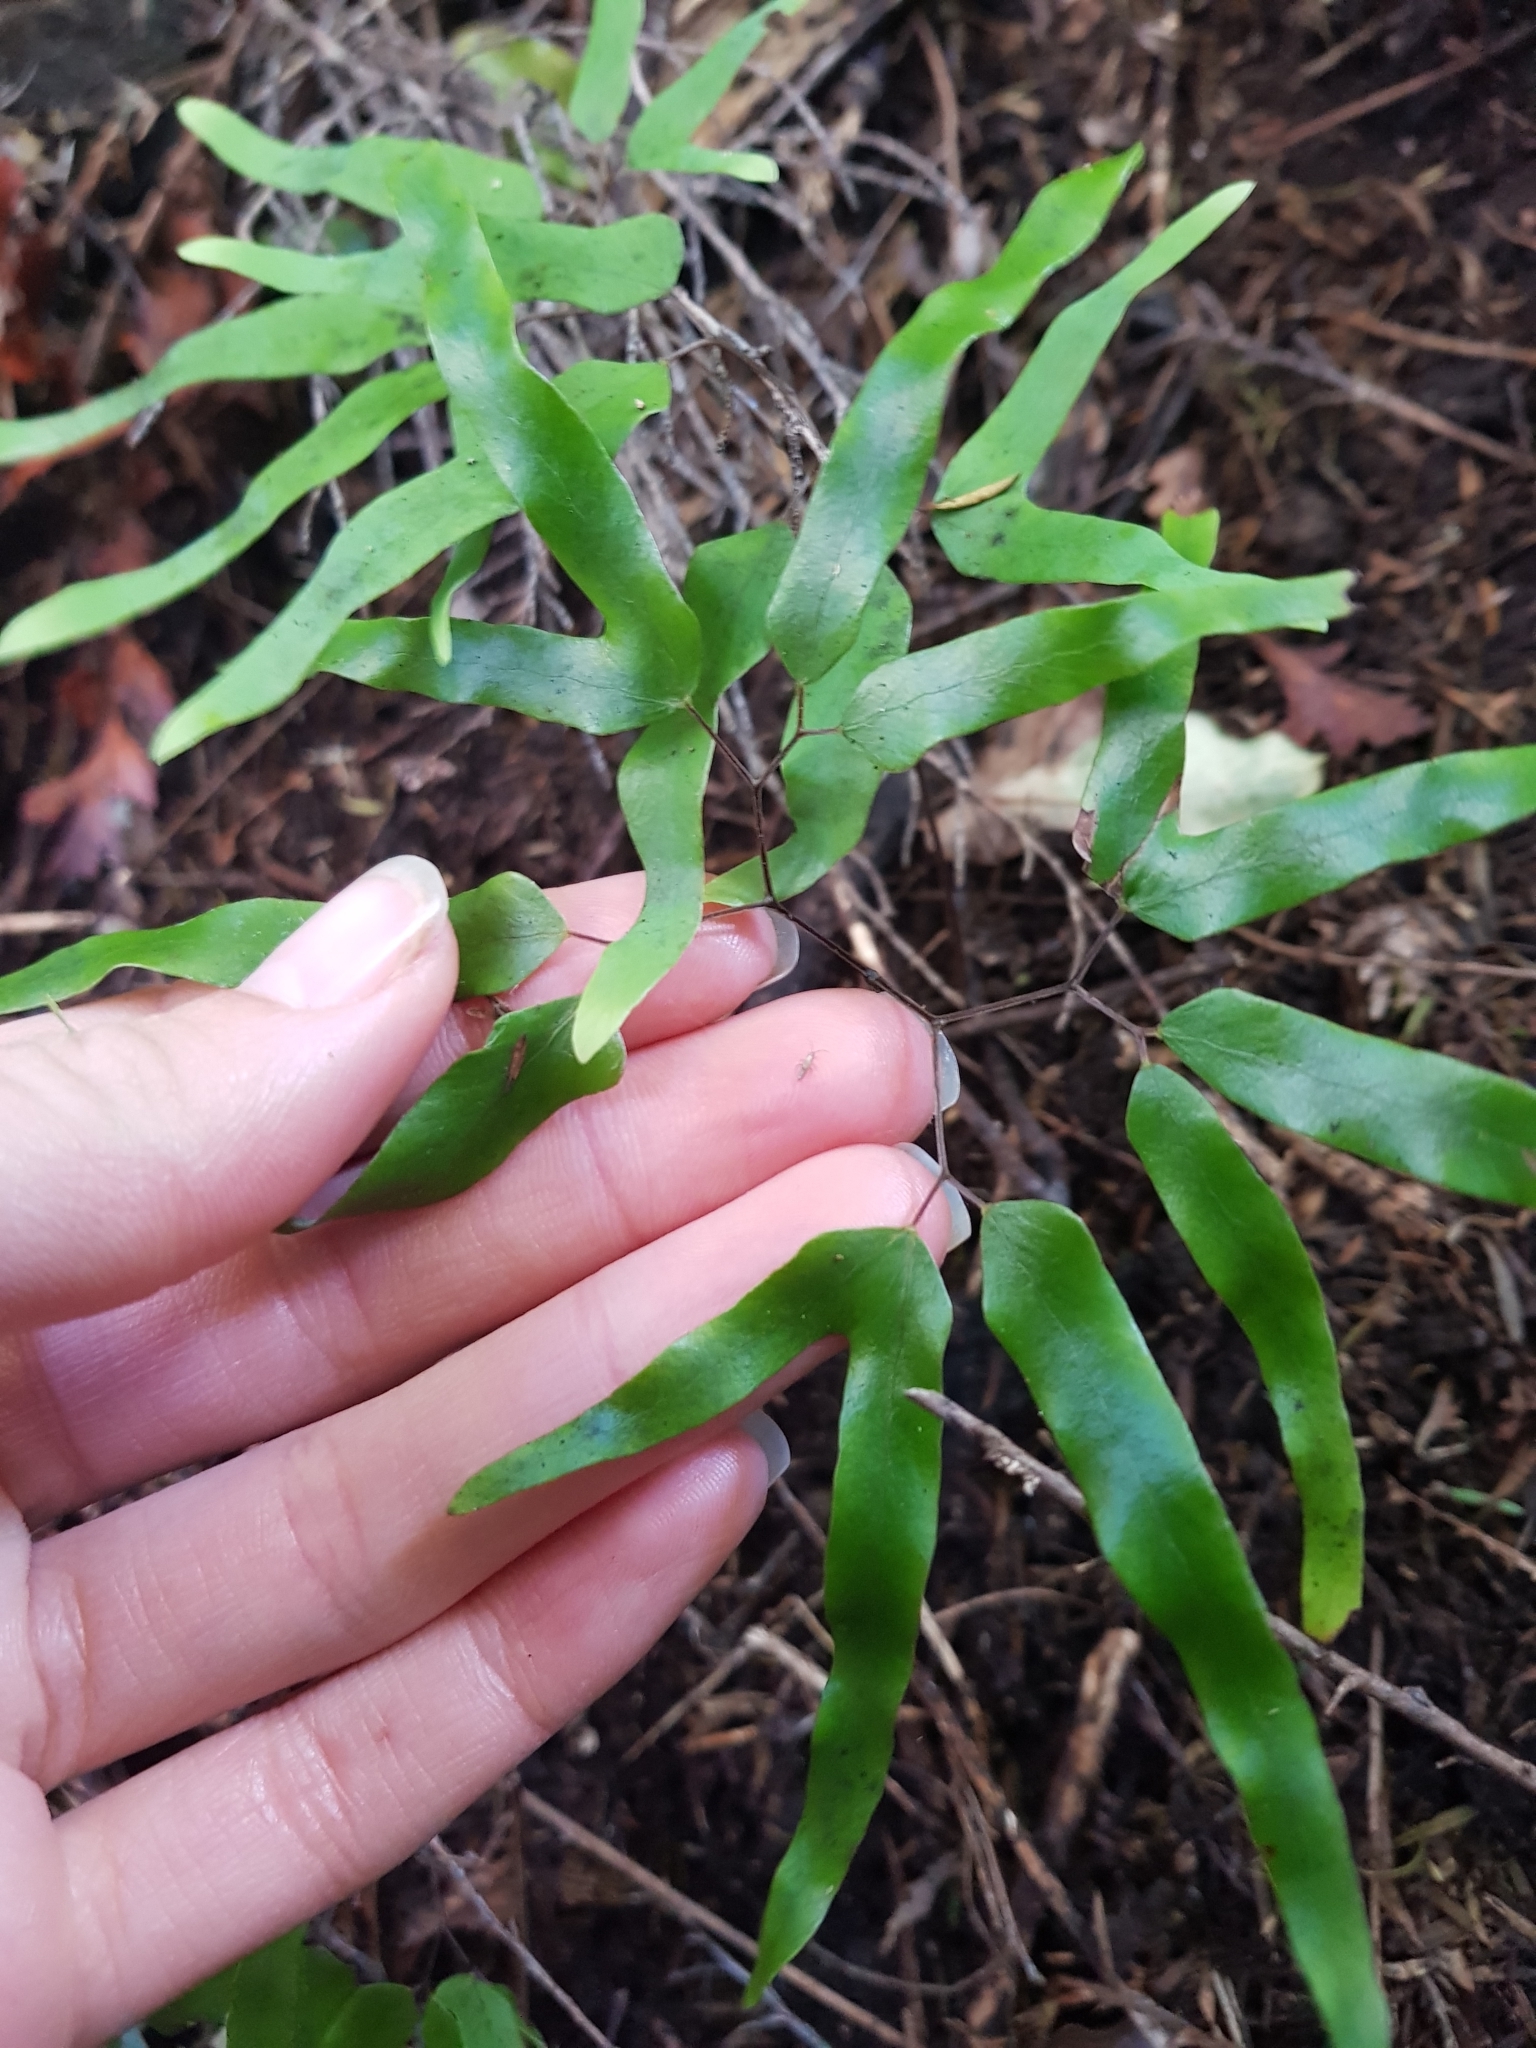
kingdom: Plantae
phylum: Tracheophyta
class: Polypodiopsida
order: Schizaeales
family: Lygodiaceae
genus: Lygodium
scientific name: Lygodium articulatum
